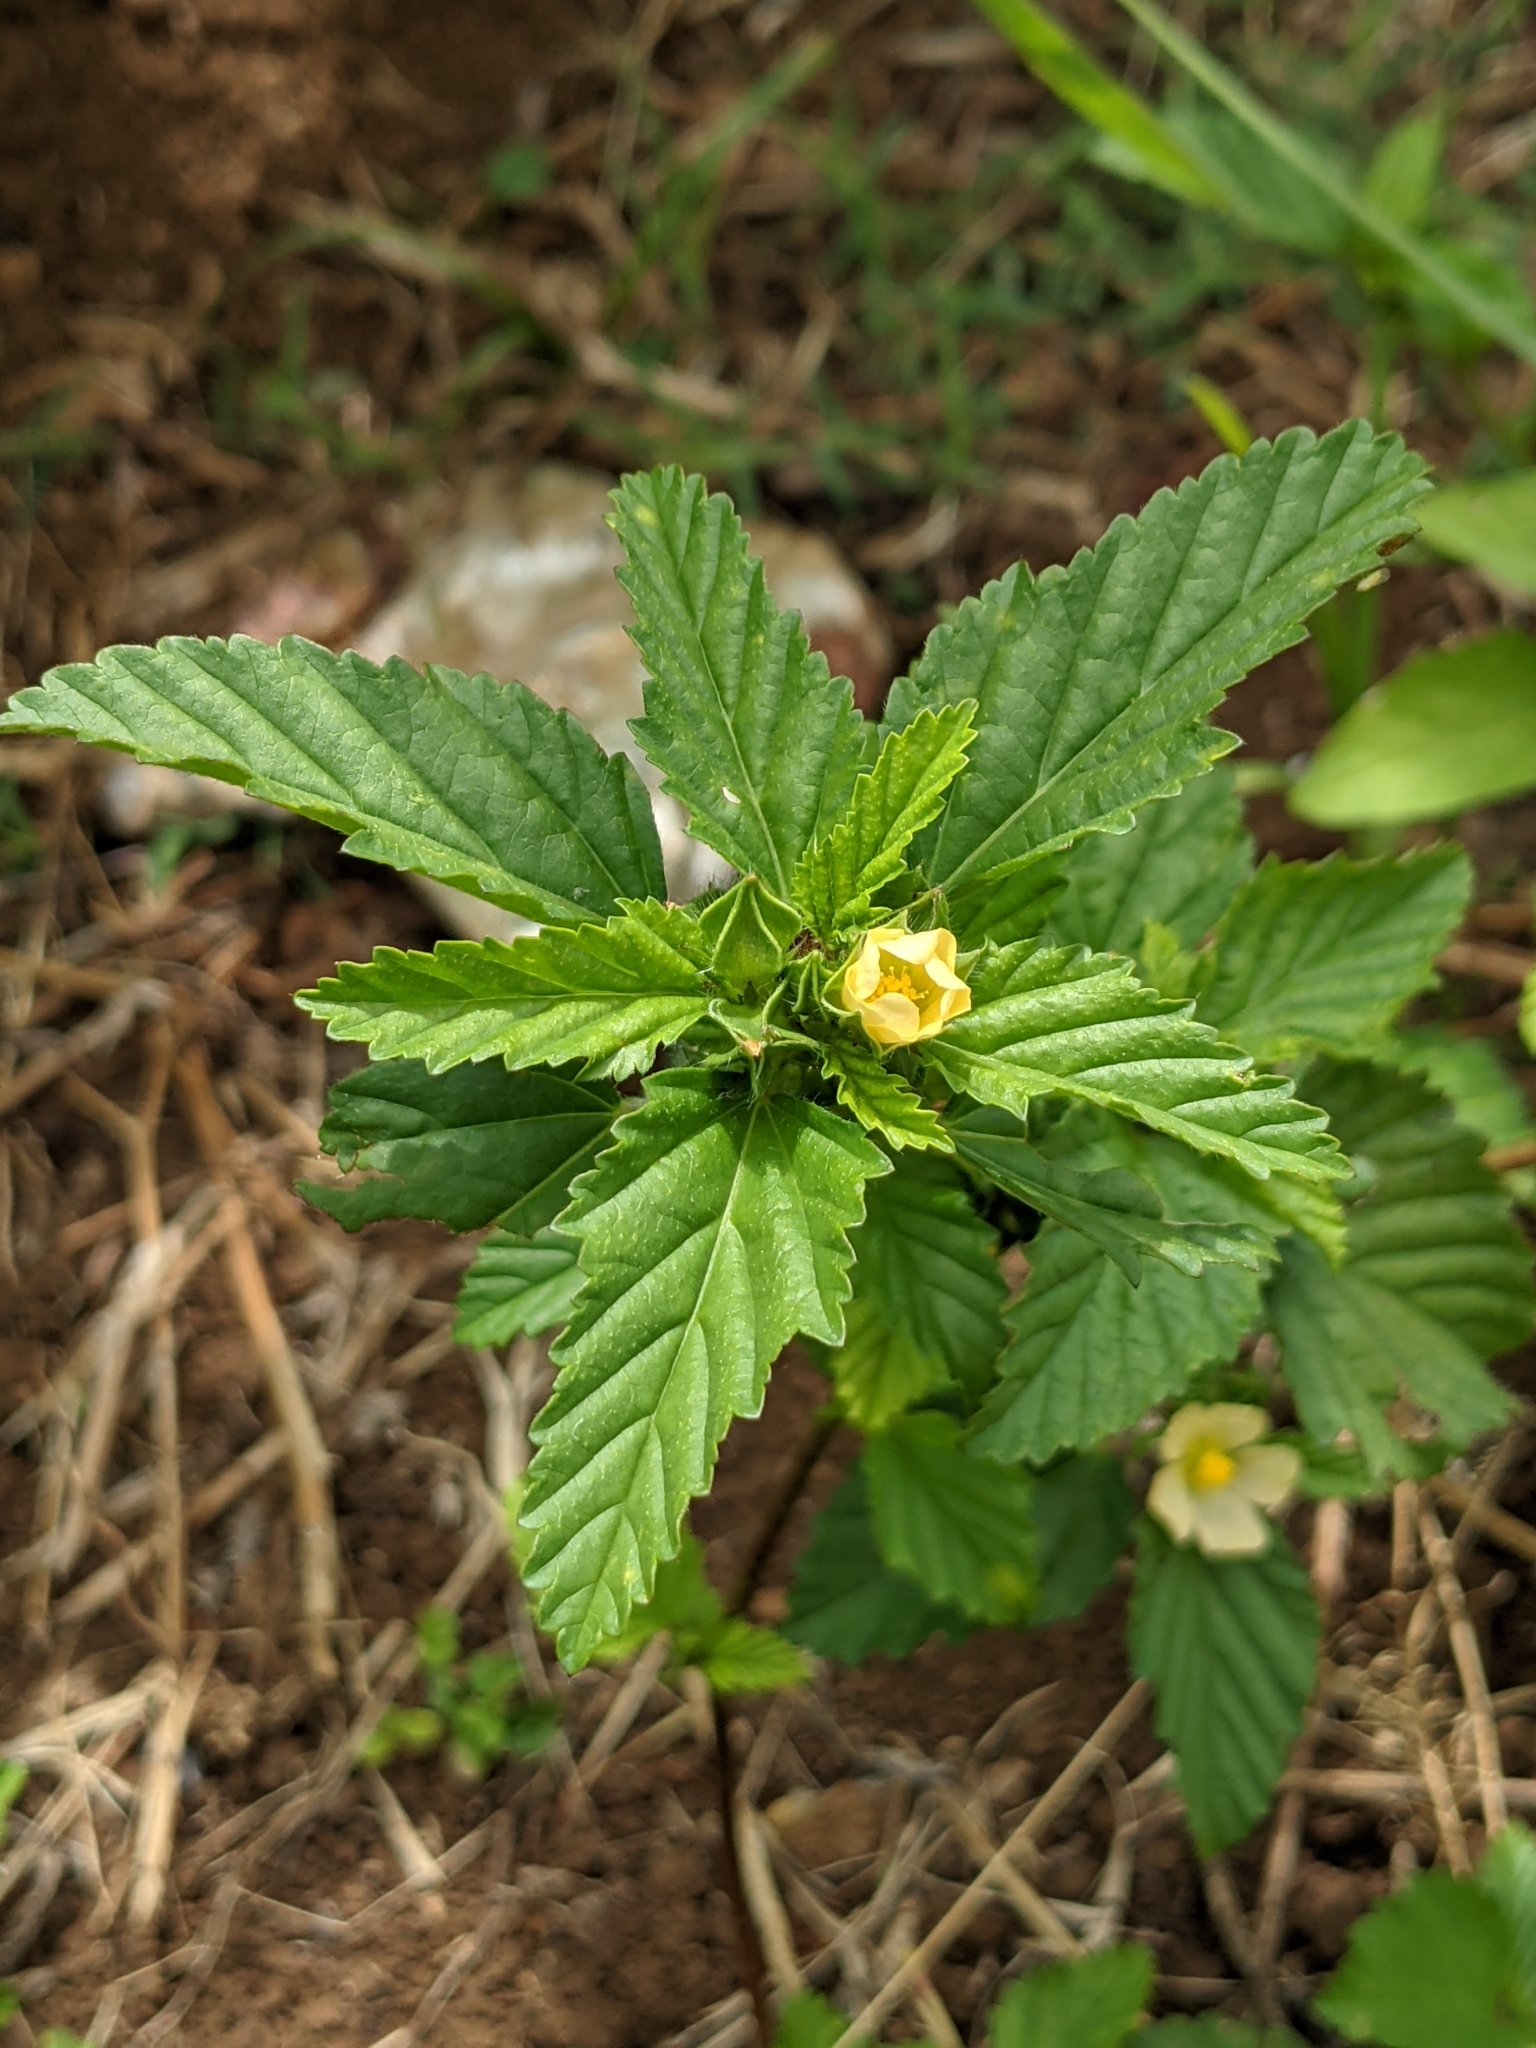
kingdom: Plantae
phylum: Tracheophyta
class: Magnoliopsida
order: Malvales
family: Malvaceae
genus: Malvastrum
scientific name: Malvastrum coromandelianum
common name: Threelobe false mallow
